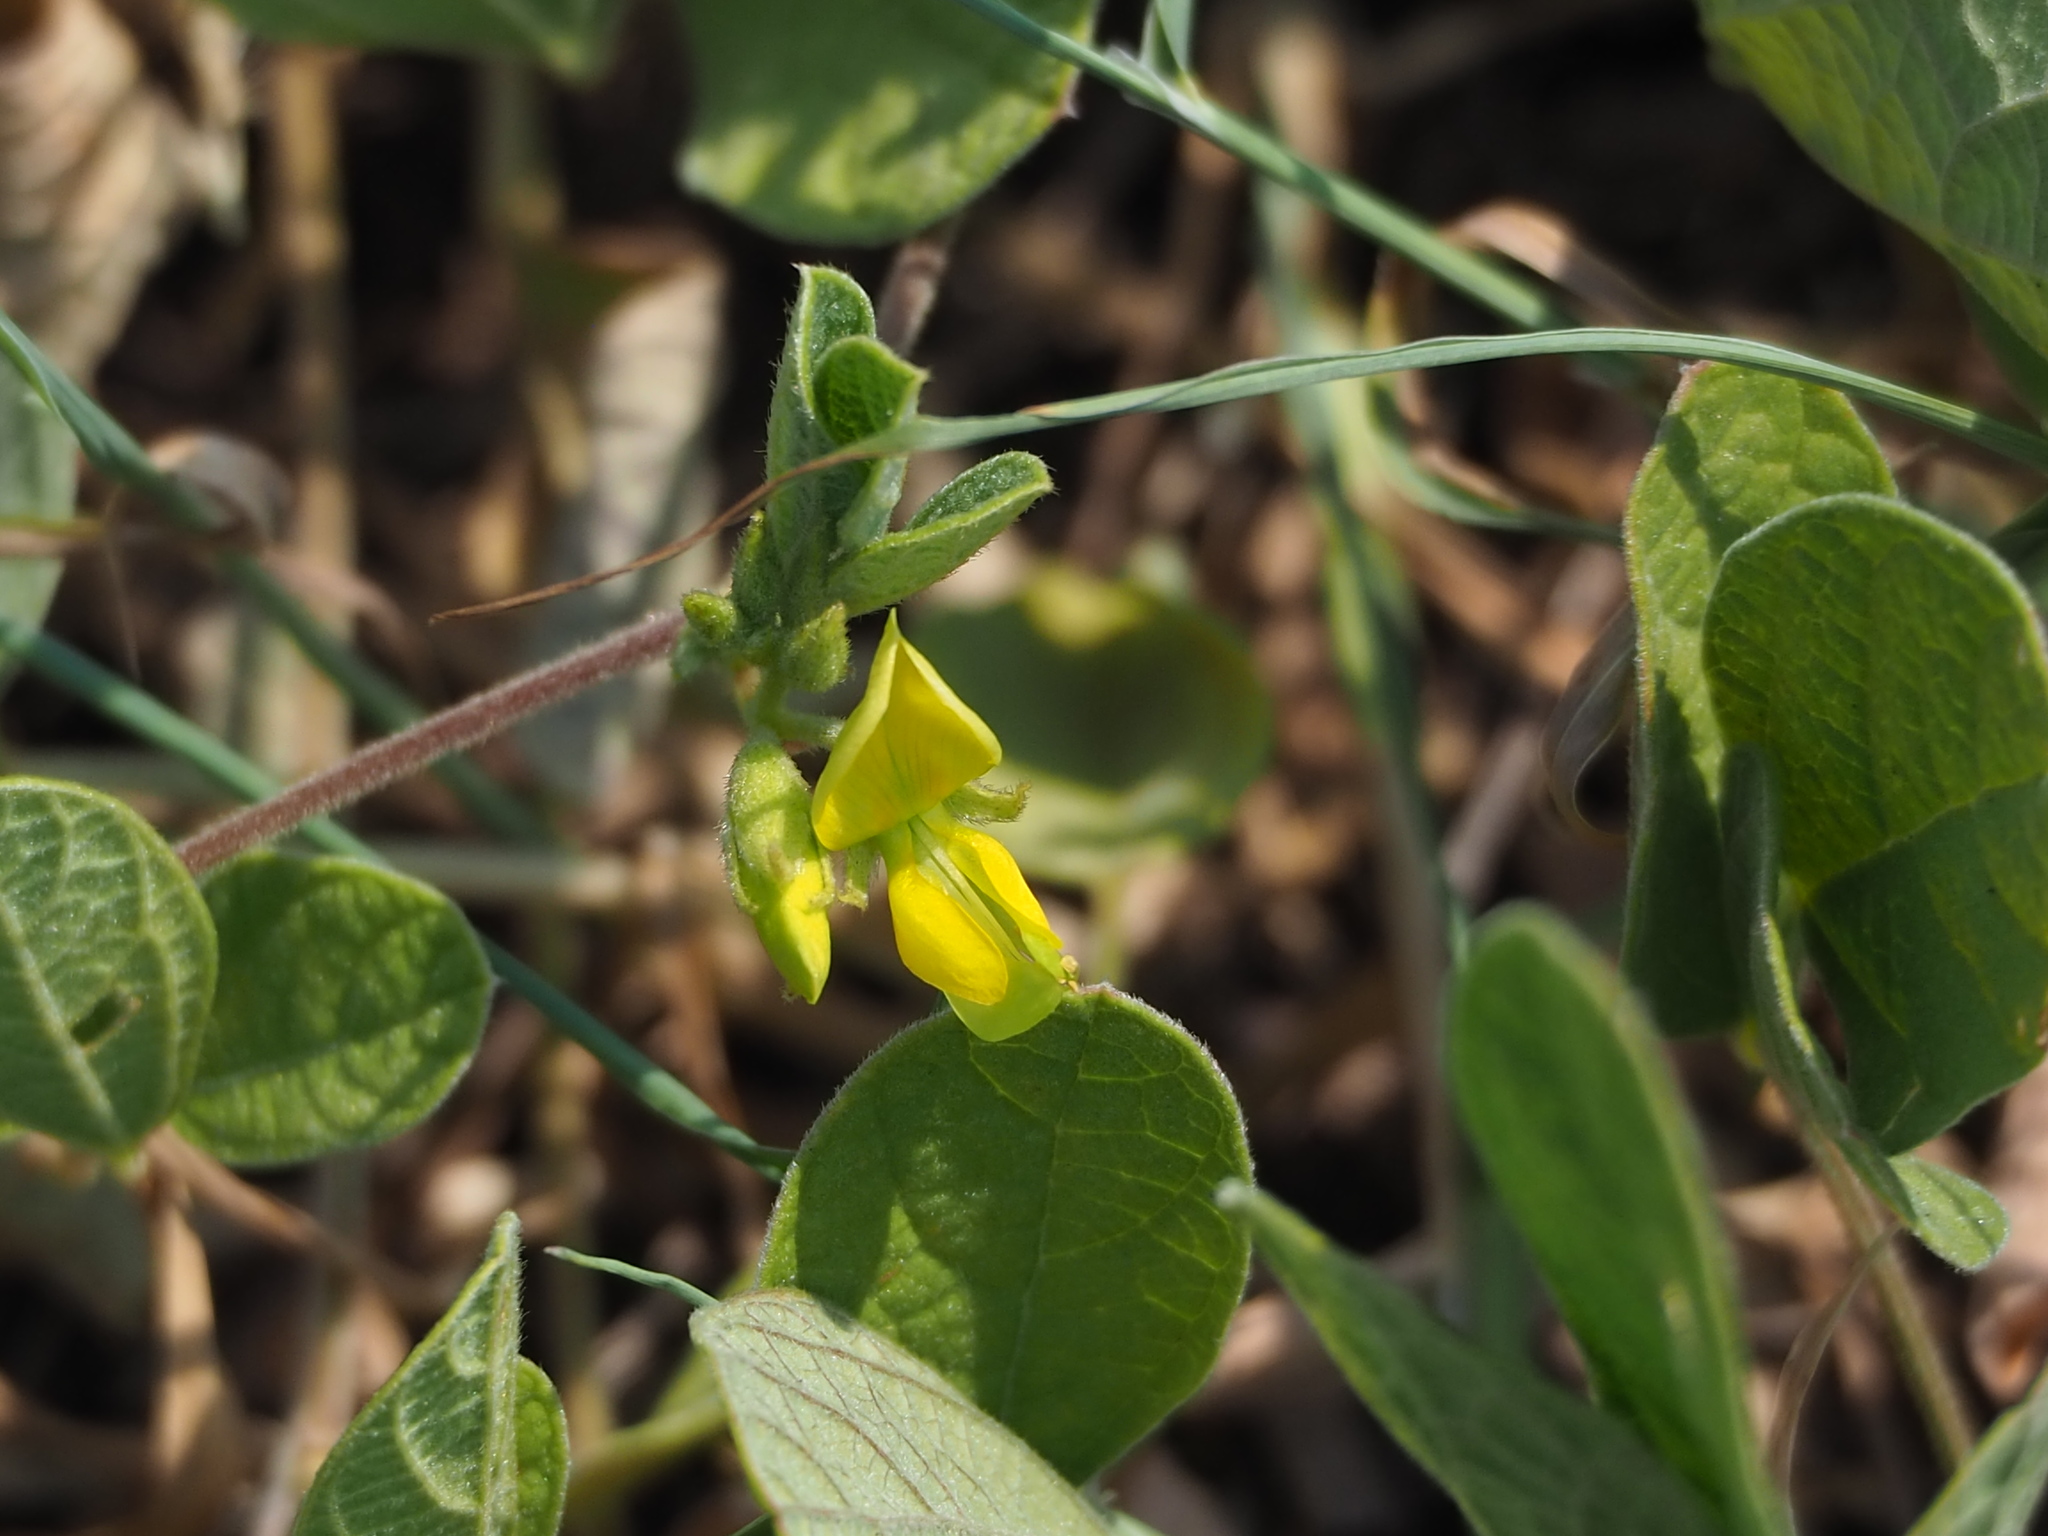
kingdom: Plantae
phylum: Tracheophyta
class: Magnoliopsida
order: Fabales
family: Fabaceae
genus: Cajanus
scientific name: Cajanus scarabaeoides
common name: Showy pigeonpea
